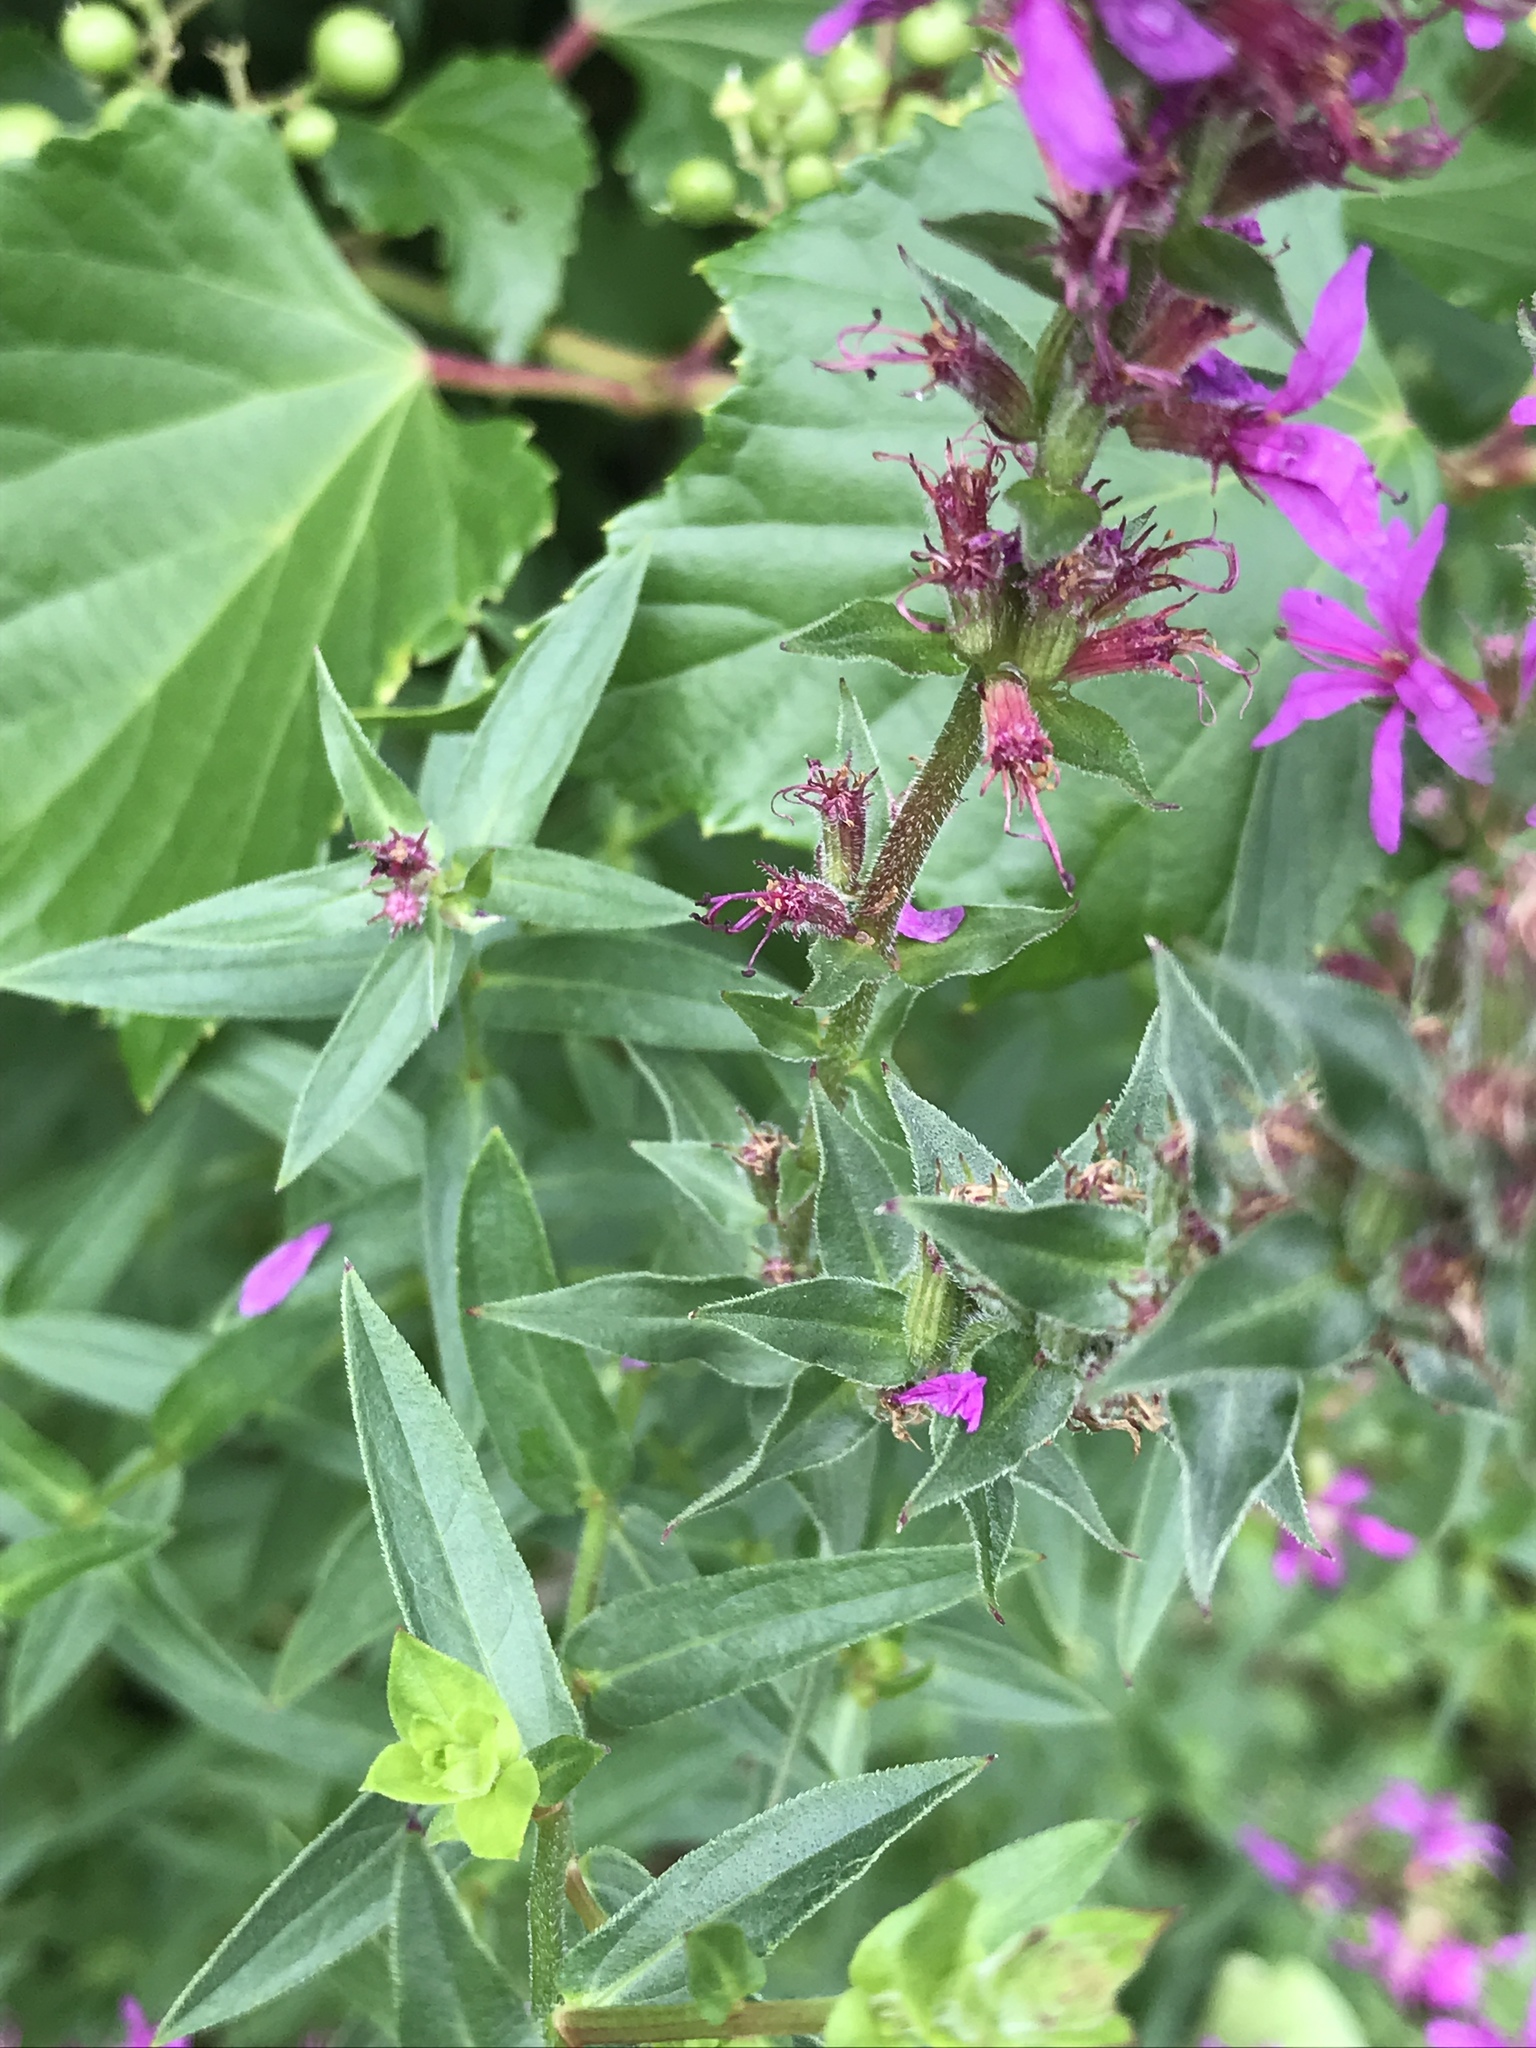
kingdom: Plantae
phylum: Tracheophyta
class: Magnoliopsida
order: Myrtales
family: Lythraceae
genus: Lythrum
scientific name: Lythrum salicaria
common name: Purple loosestrife
